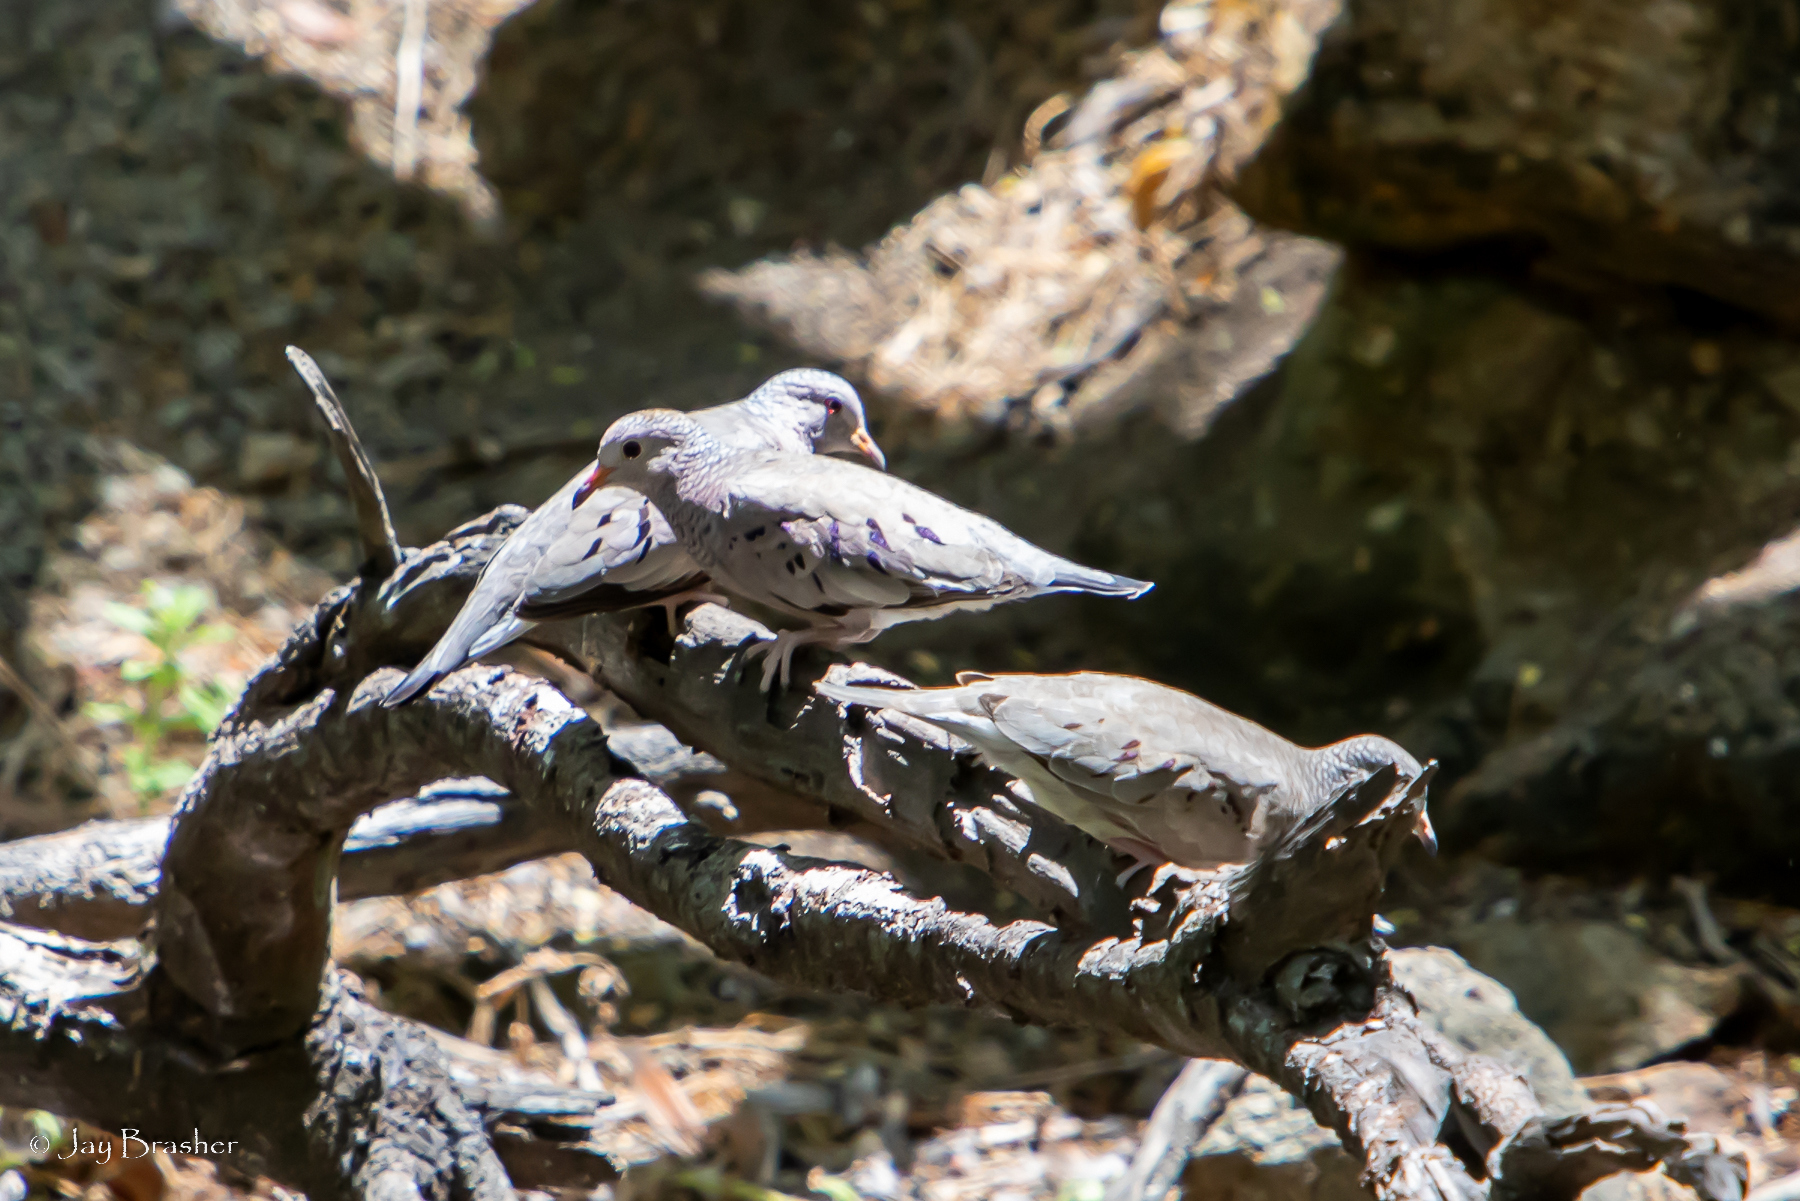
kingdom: Animalia
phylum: Chordata
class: Aves
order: Columbiformes
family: Columbidae
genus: Columbina
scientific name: Columbina passerina
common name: Common ground-dove
